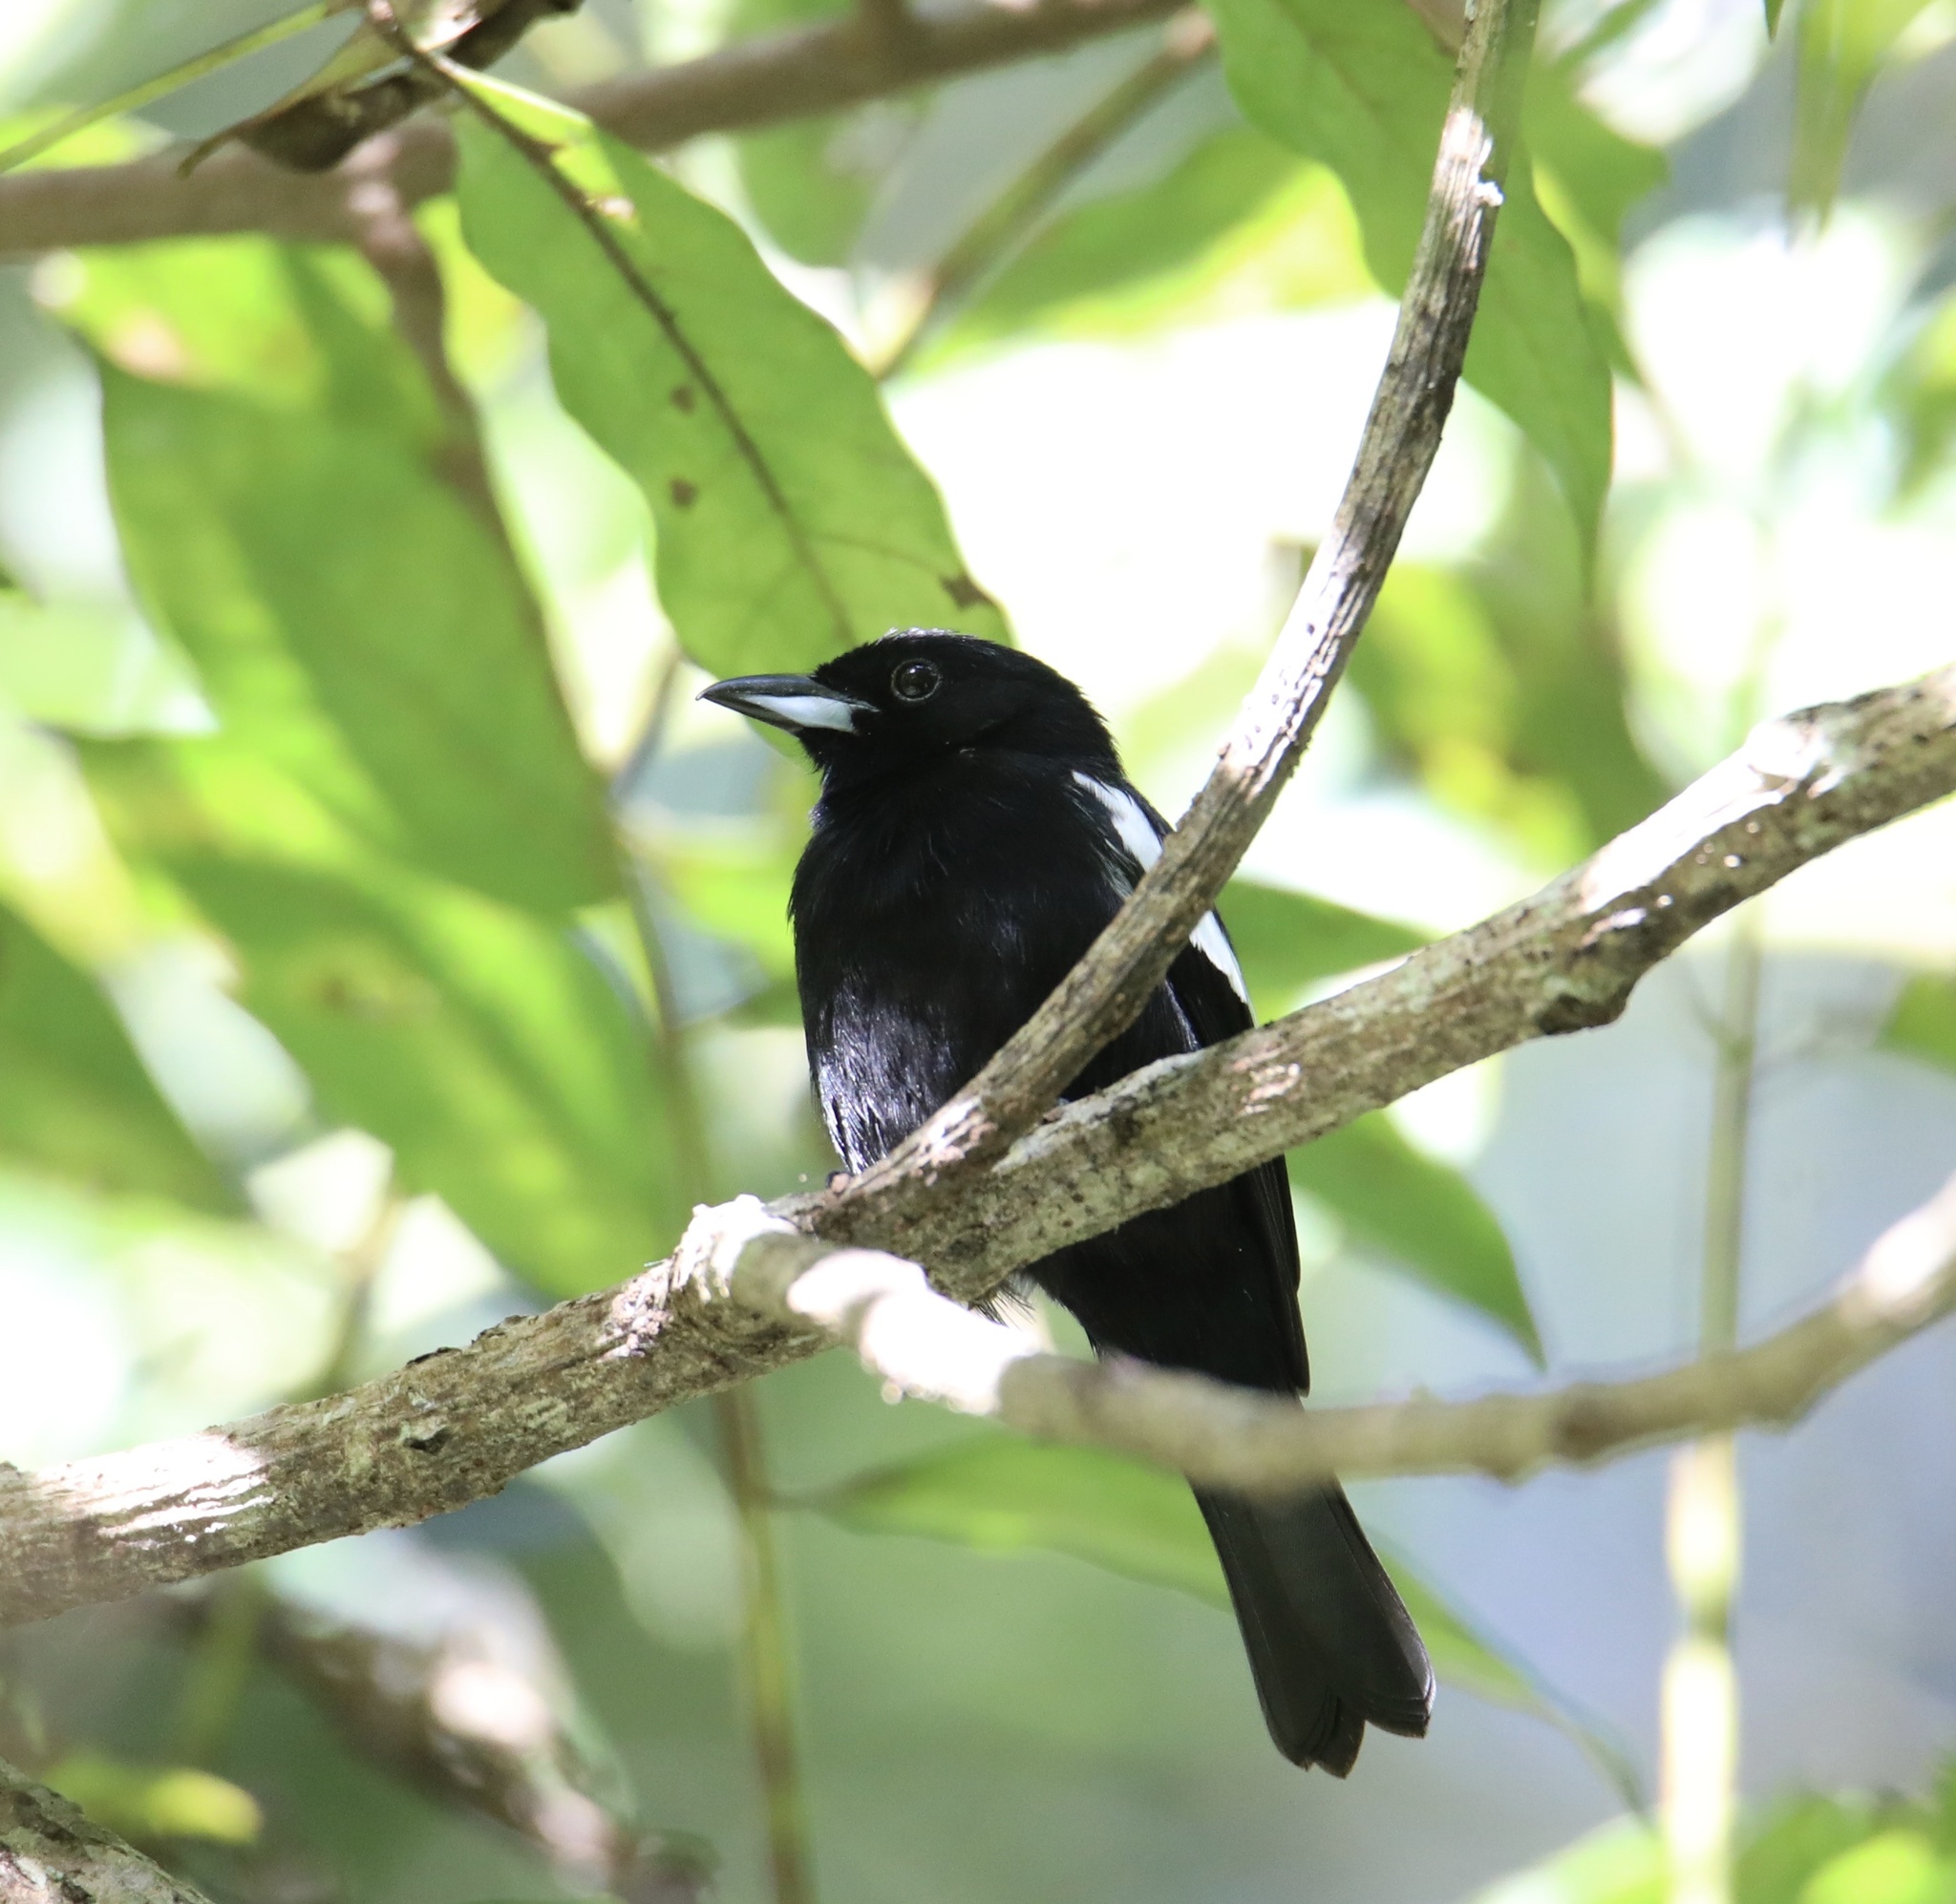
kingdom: Animalia
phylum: Chordata
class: Aves
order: Passeriformes
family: Thraupidae
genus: Loriotus
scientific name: Loriotus luctuosus
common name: White-shouldered tanager
